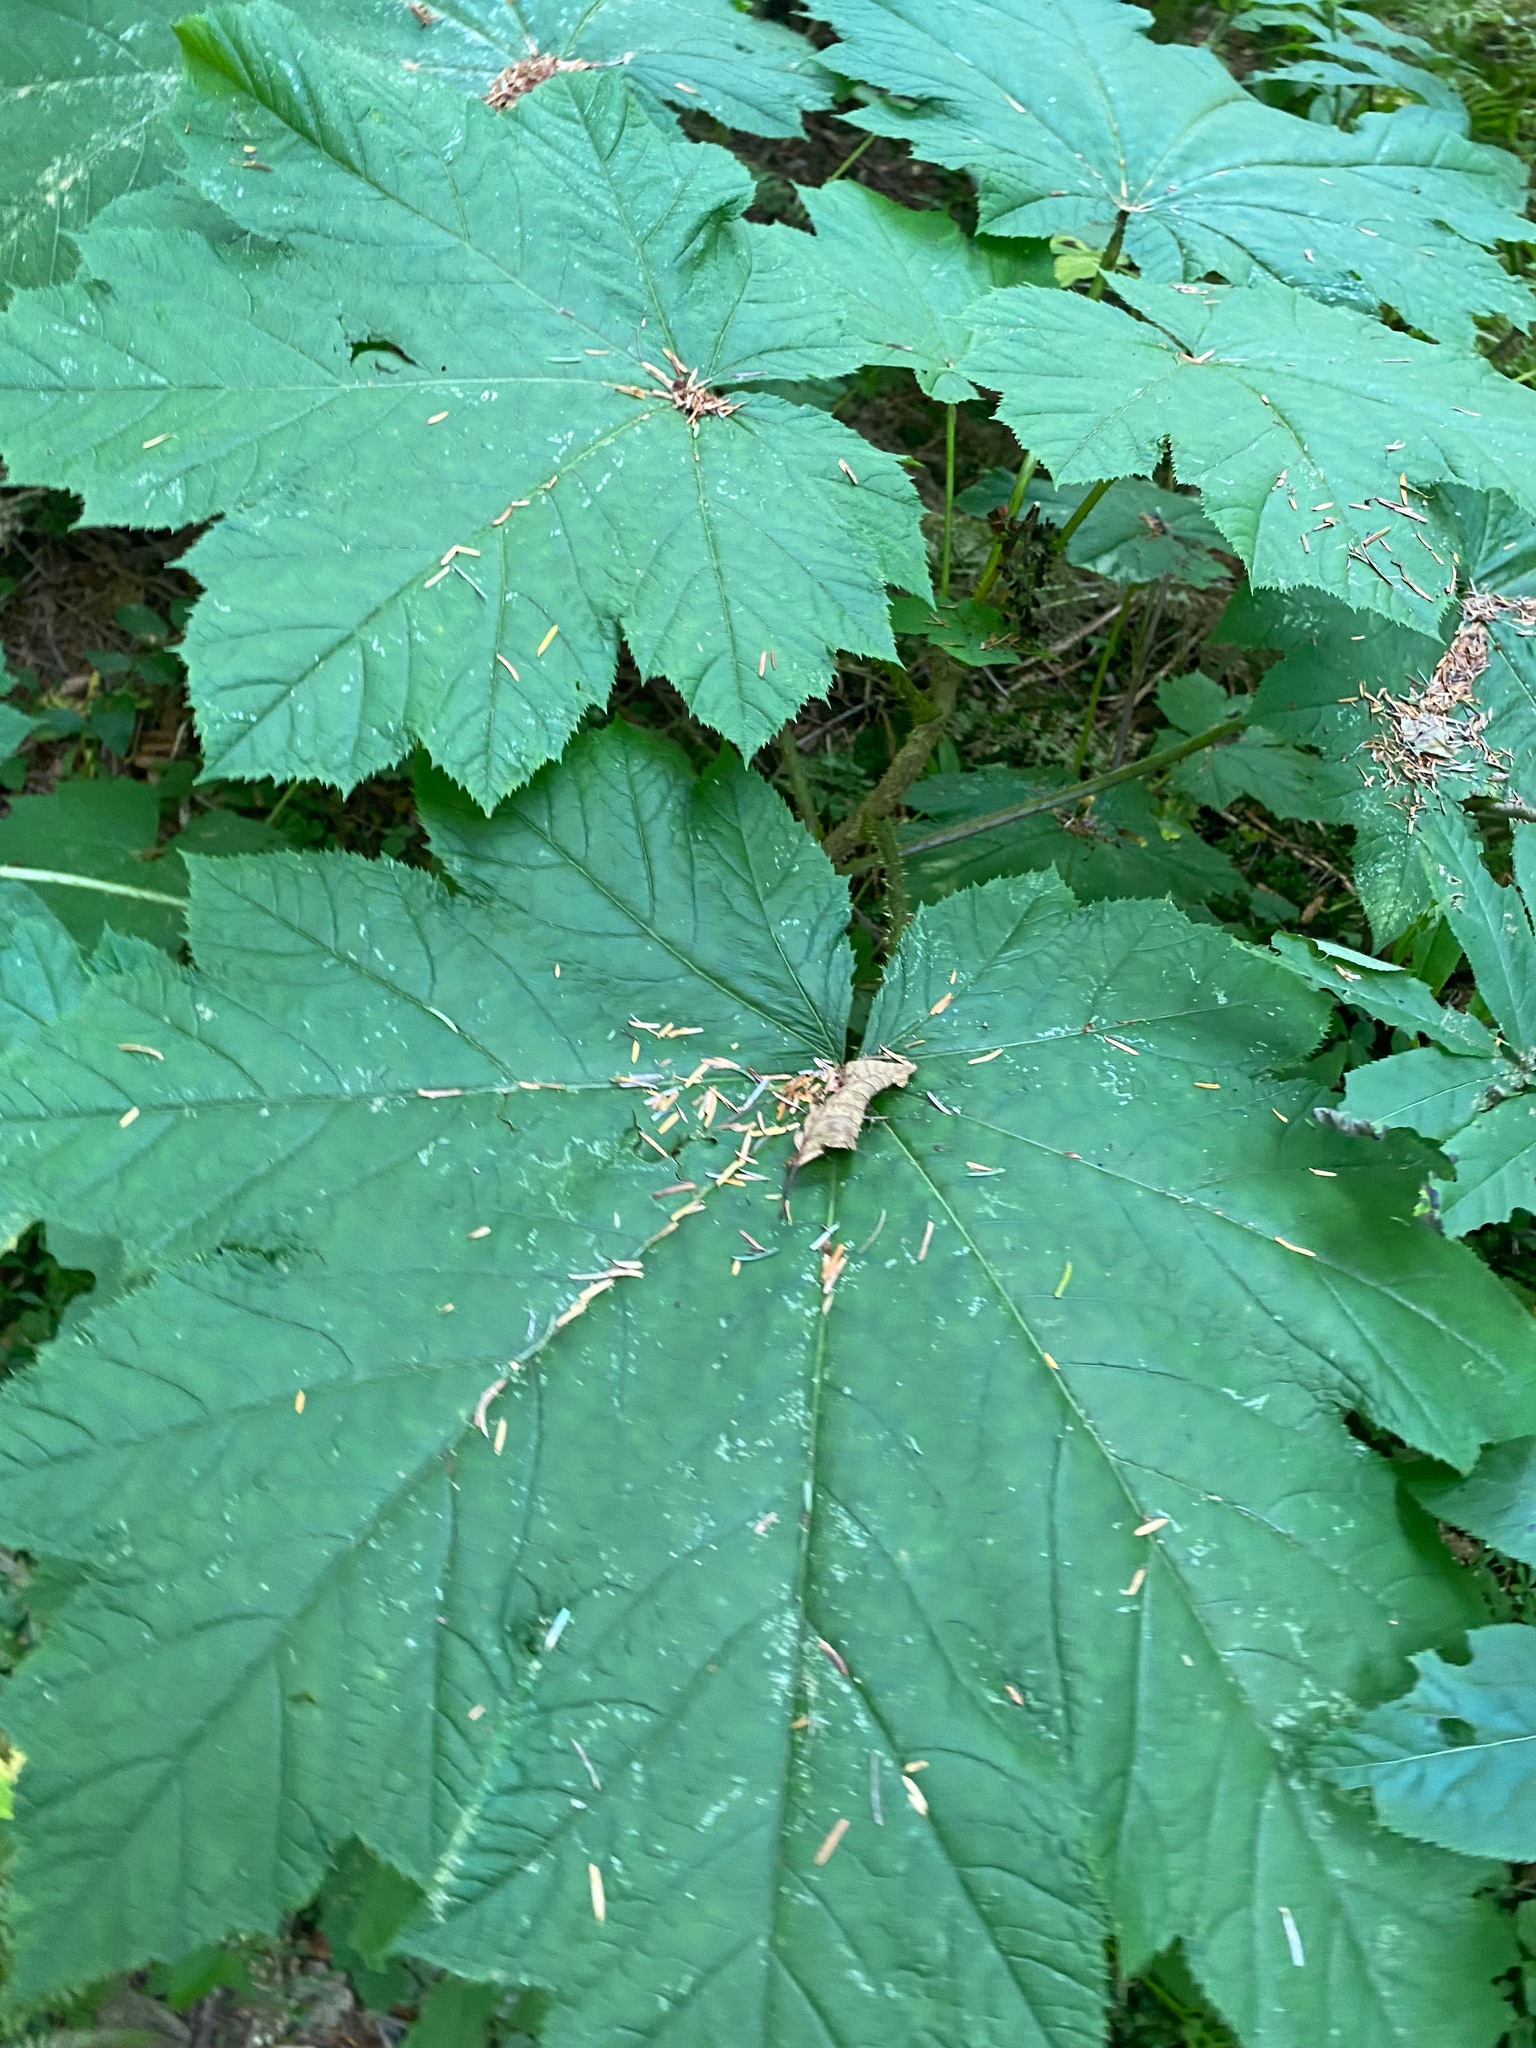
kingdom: Plantae
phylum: Tracheophyta
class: Magnoliopsida
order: Apiales
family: Araliaceae
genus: Oplopanax
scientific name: Oplopanax horridus
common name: Devil's walking-stick
